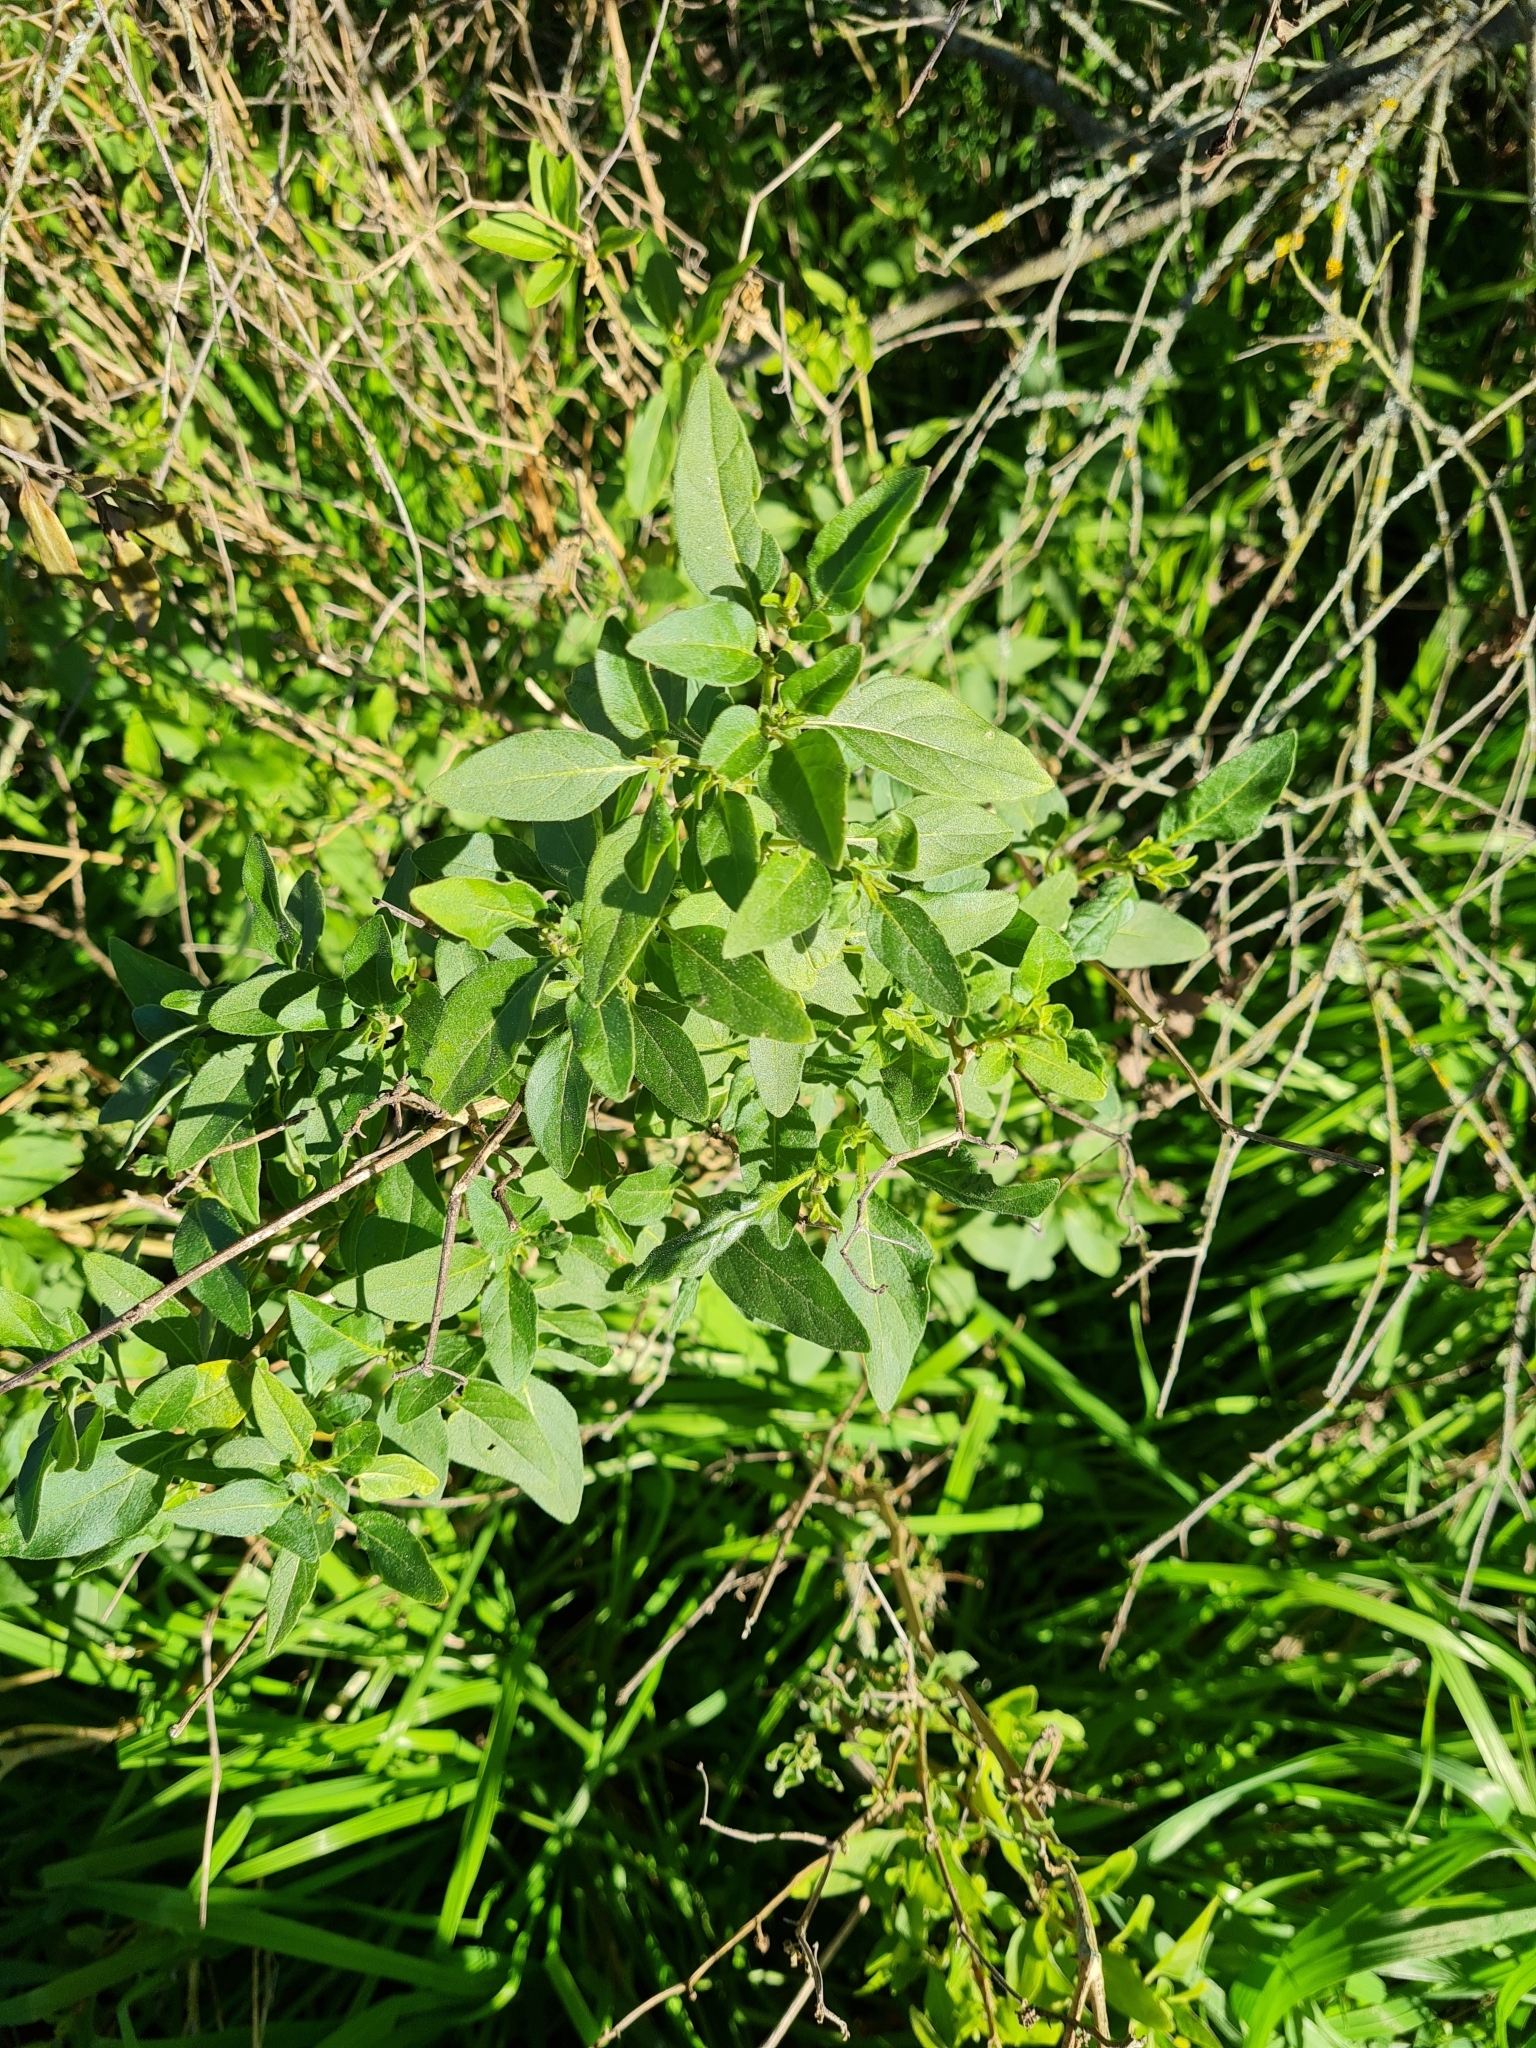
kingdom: Plantae
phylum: Tracheophyta
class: Magnoliopsida
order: Solanales
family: Solanaceae
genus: Solanum
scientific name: Solanum chenopodioides
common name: Tall nightshade
